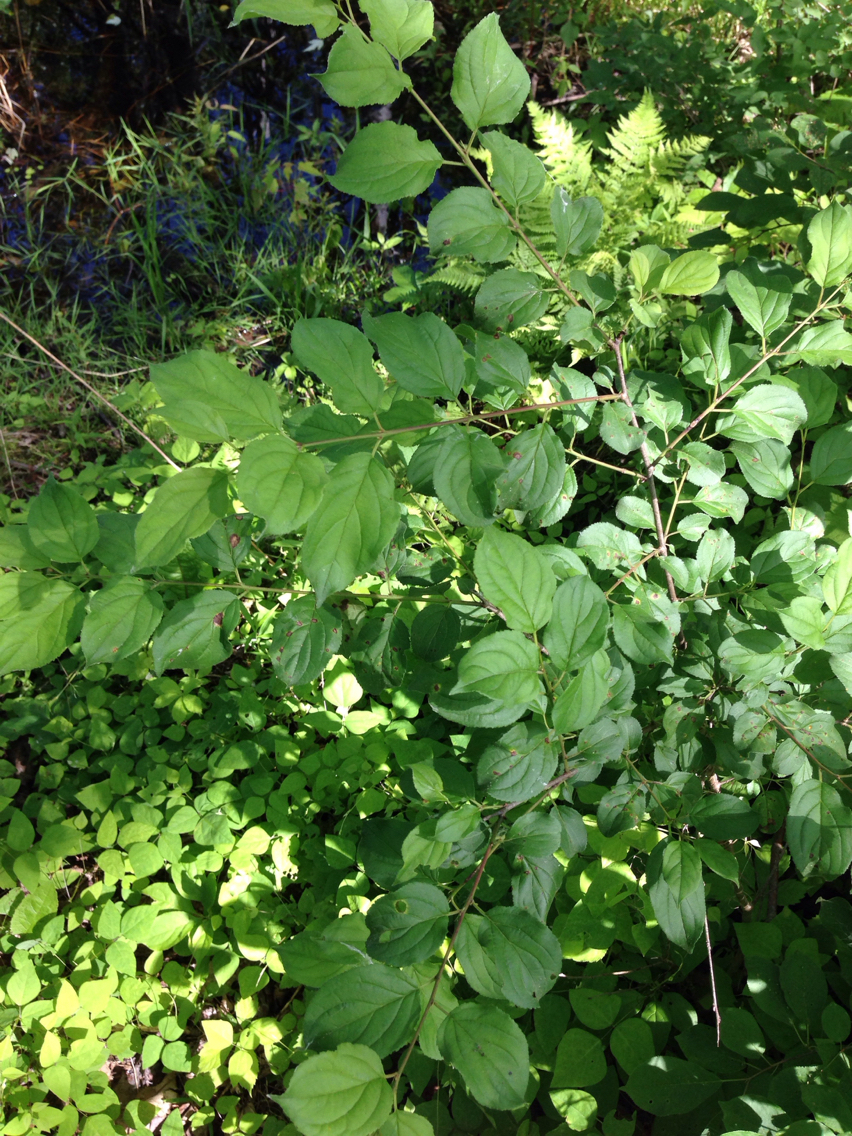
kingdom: Plantae
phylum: Tracheophyta
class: Magnoliopsida
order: Rosales
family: Rhamnaceae
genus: Rhamnus
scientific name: Rhamnus cathartica
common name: Common buckthorn
